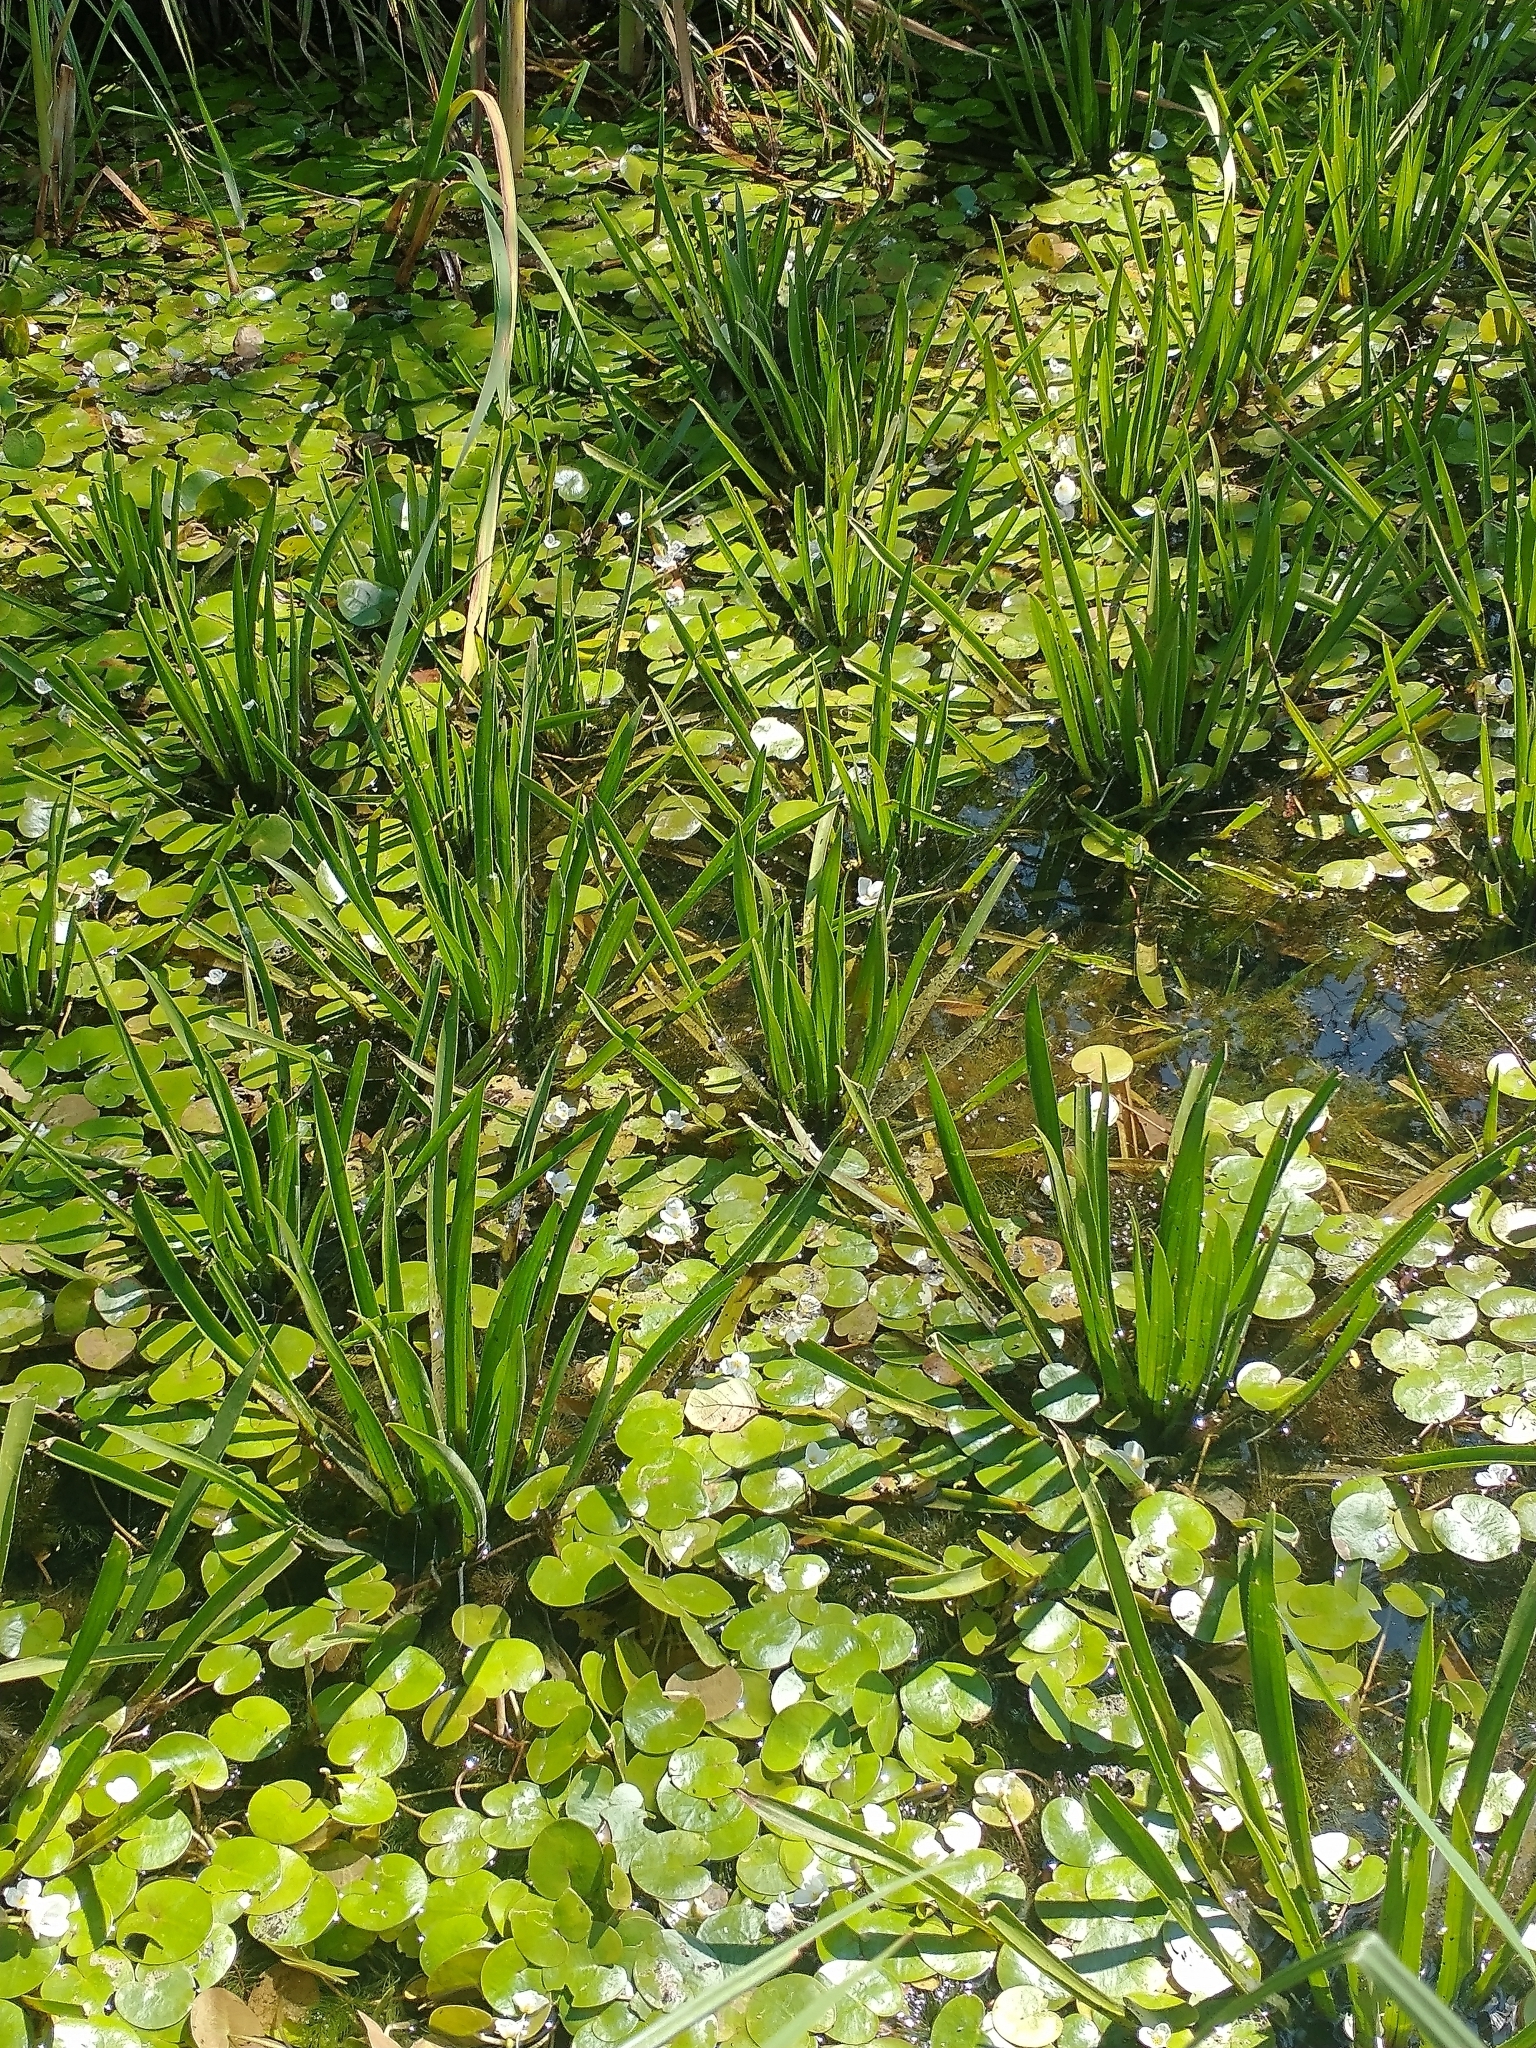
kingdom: Plantae
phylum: Tracheophyta
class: Liliopsida
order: Alismatales
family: Hydrocharitaceae
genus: Hydrocharis
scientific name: Hydrocharis morsus-ranae
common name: Frogbit
